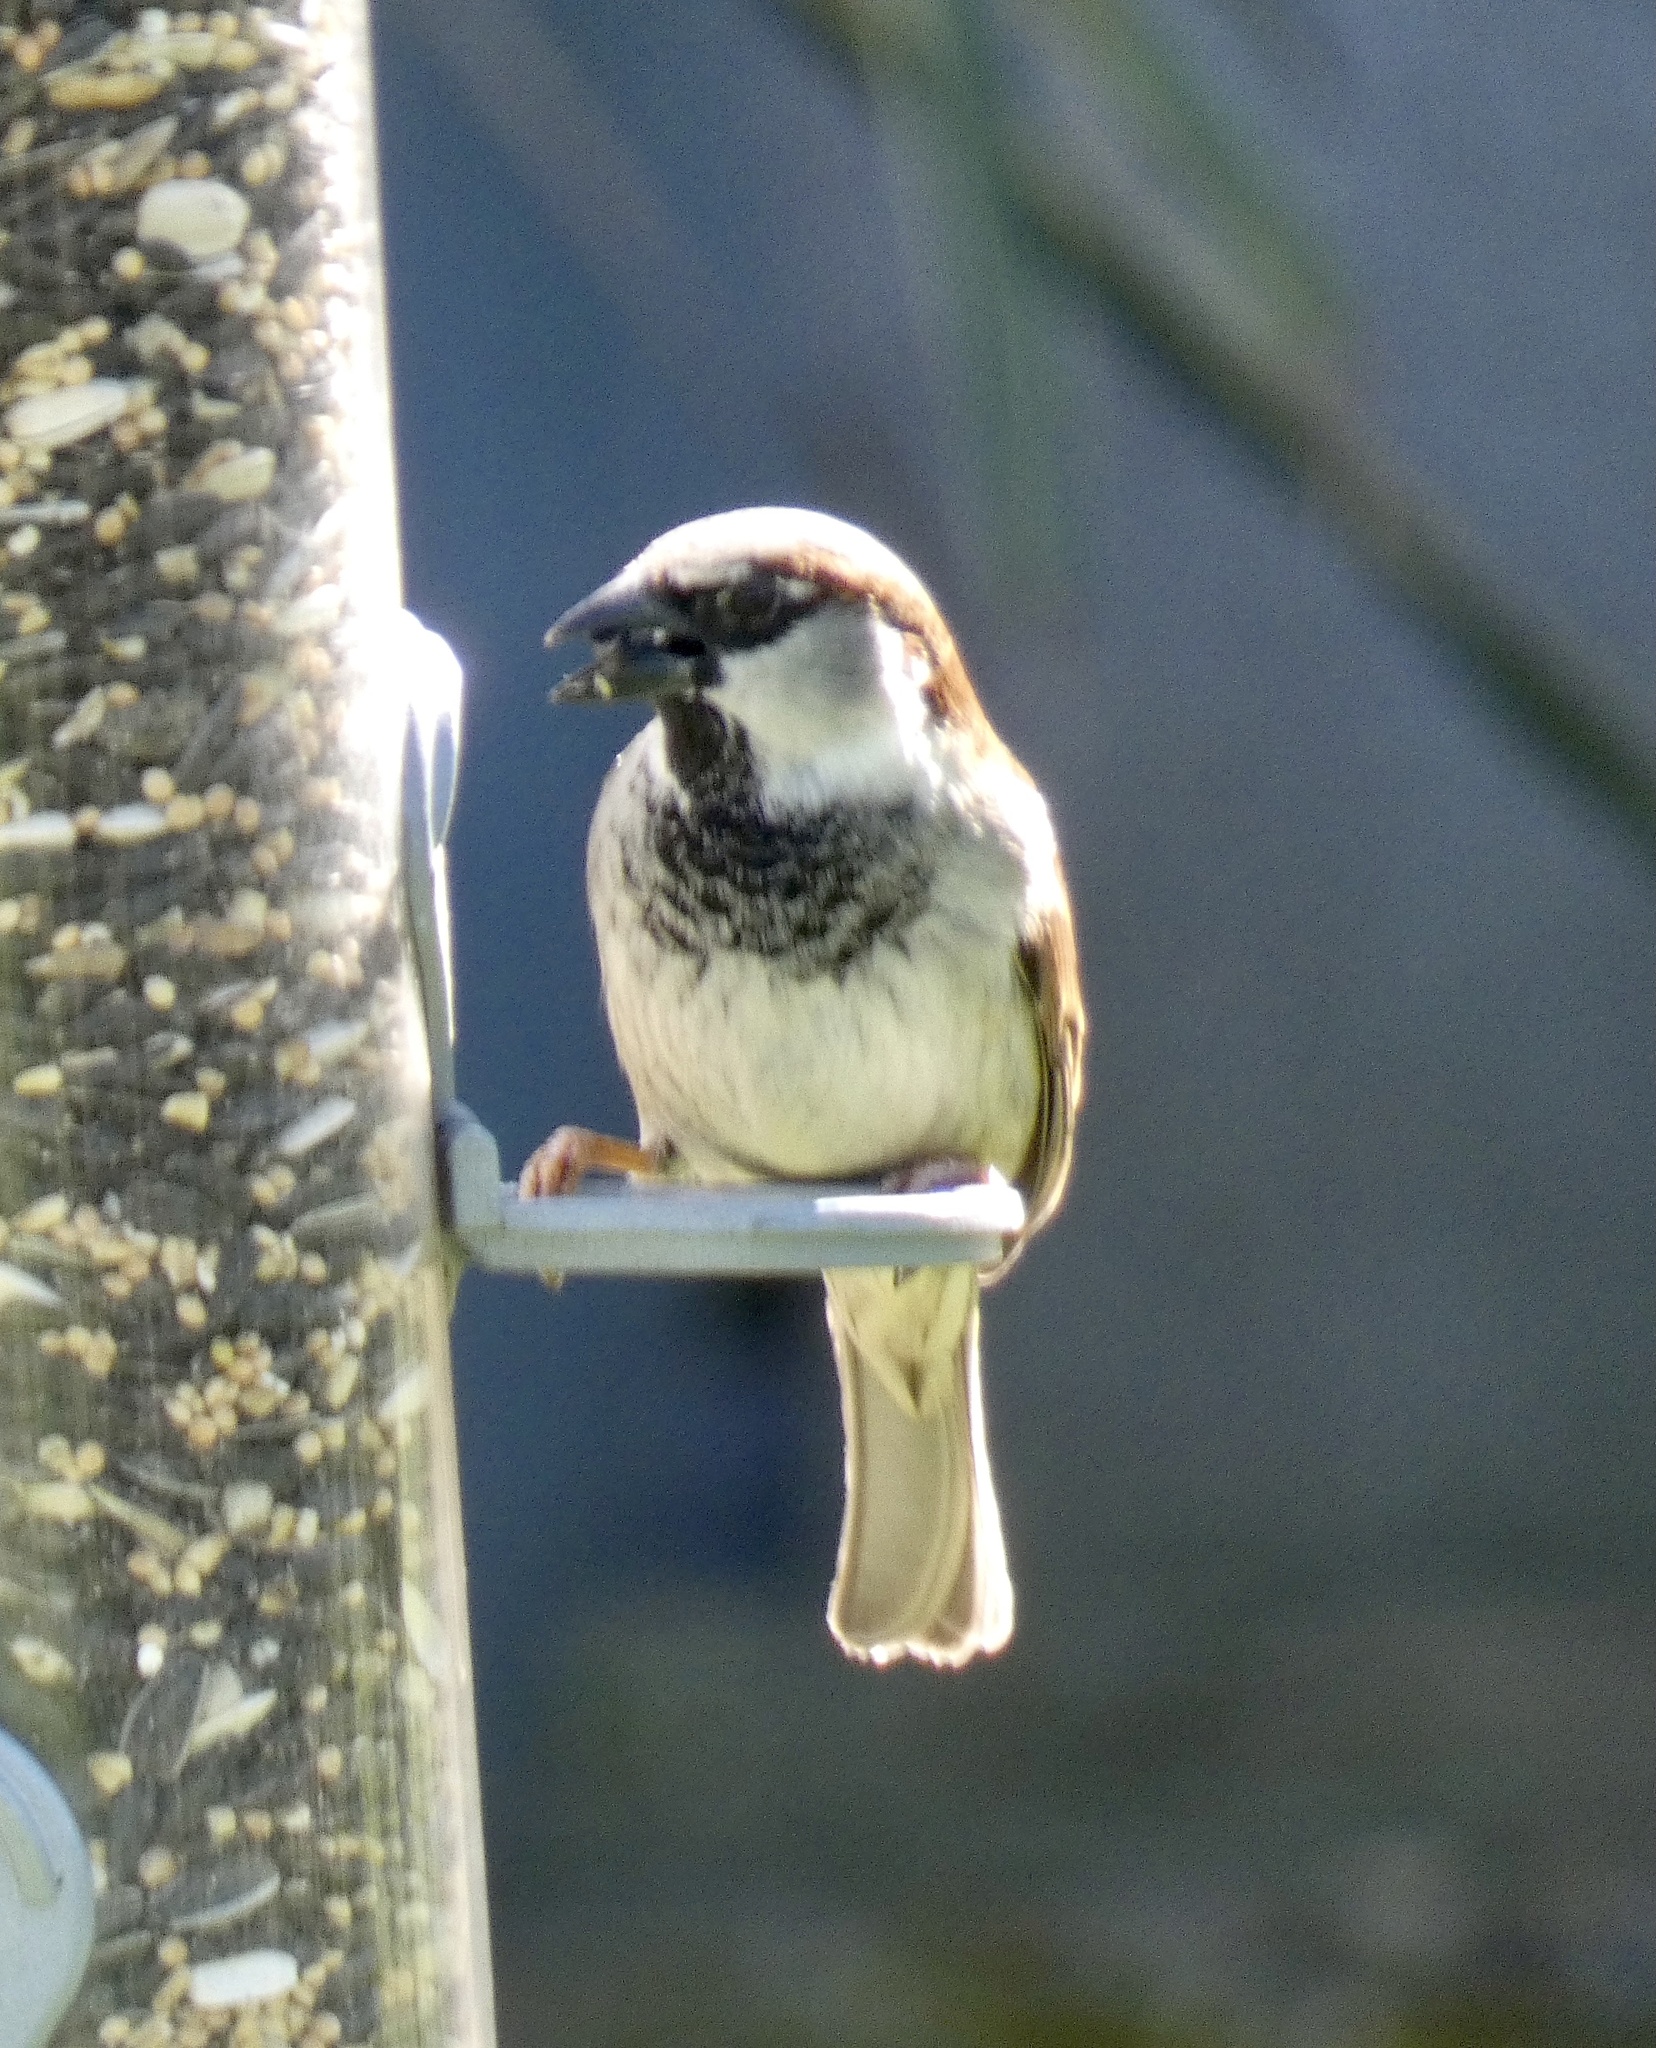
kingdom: Animalia
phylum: Chordata
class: Aves
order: Passeriformes
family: Passeridae
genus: Passer
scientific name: Passer domesticus
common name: House sparrow
